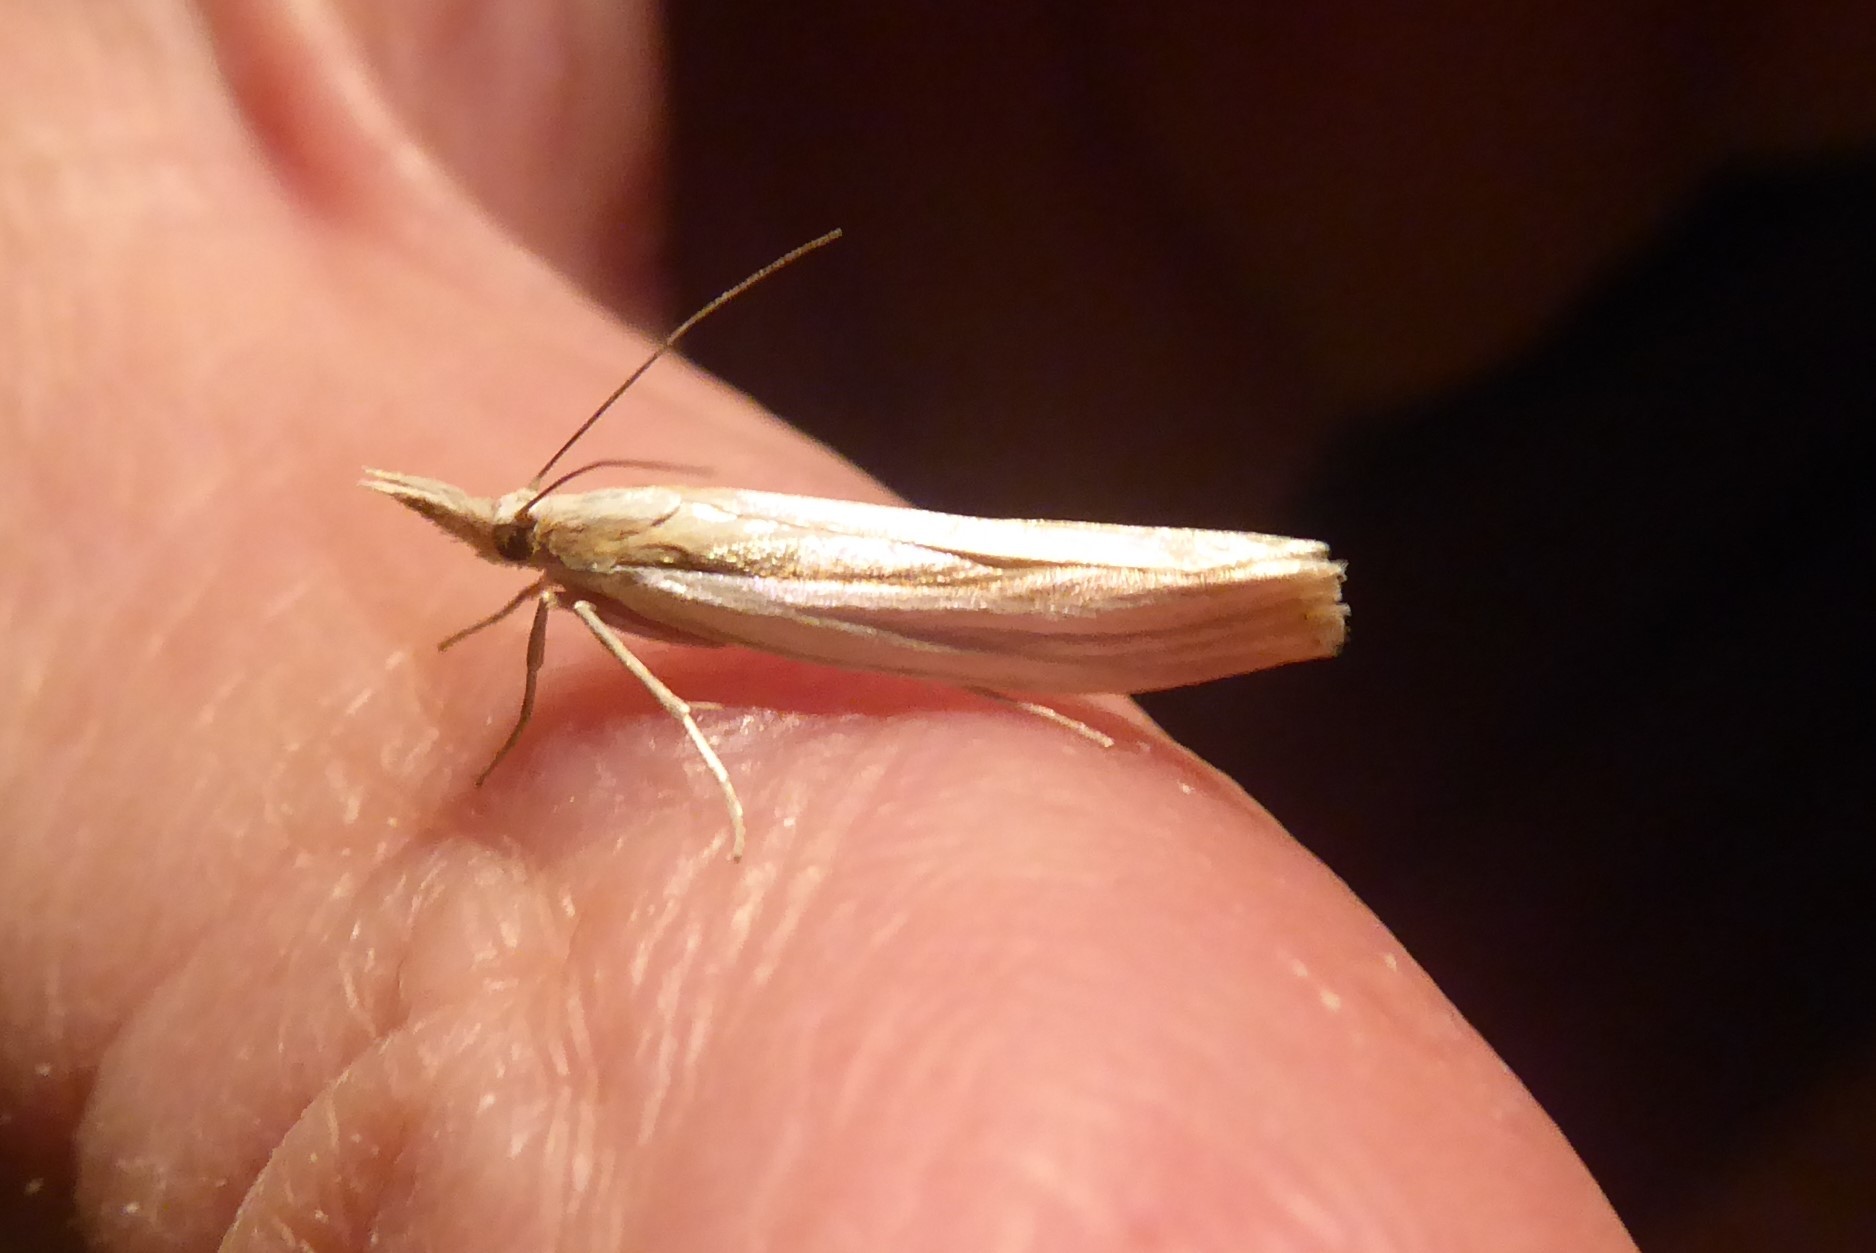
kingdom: Animalia
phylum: Arthropoda
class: Insecta
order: Lepidoptera
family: Crambidae
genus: Orocrambus
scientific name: Orocrambus ramosellus
